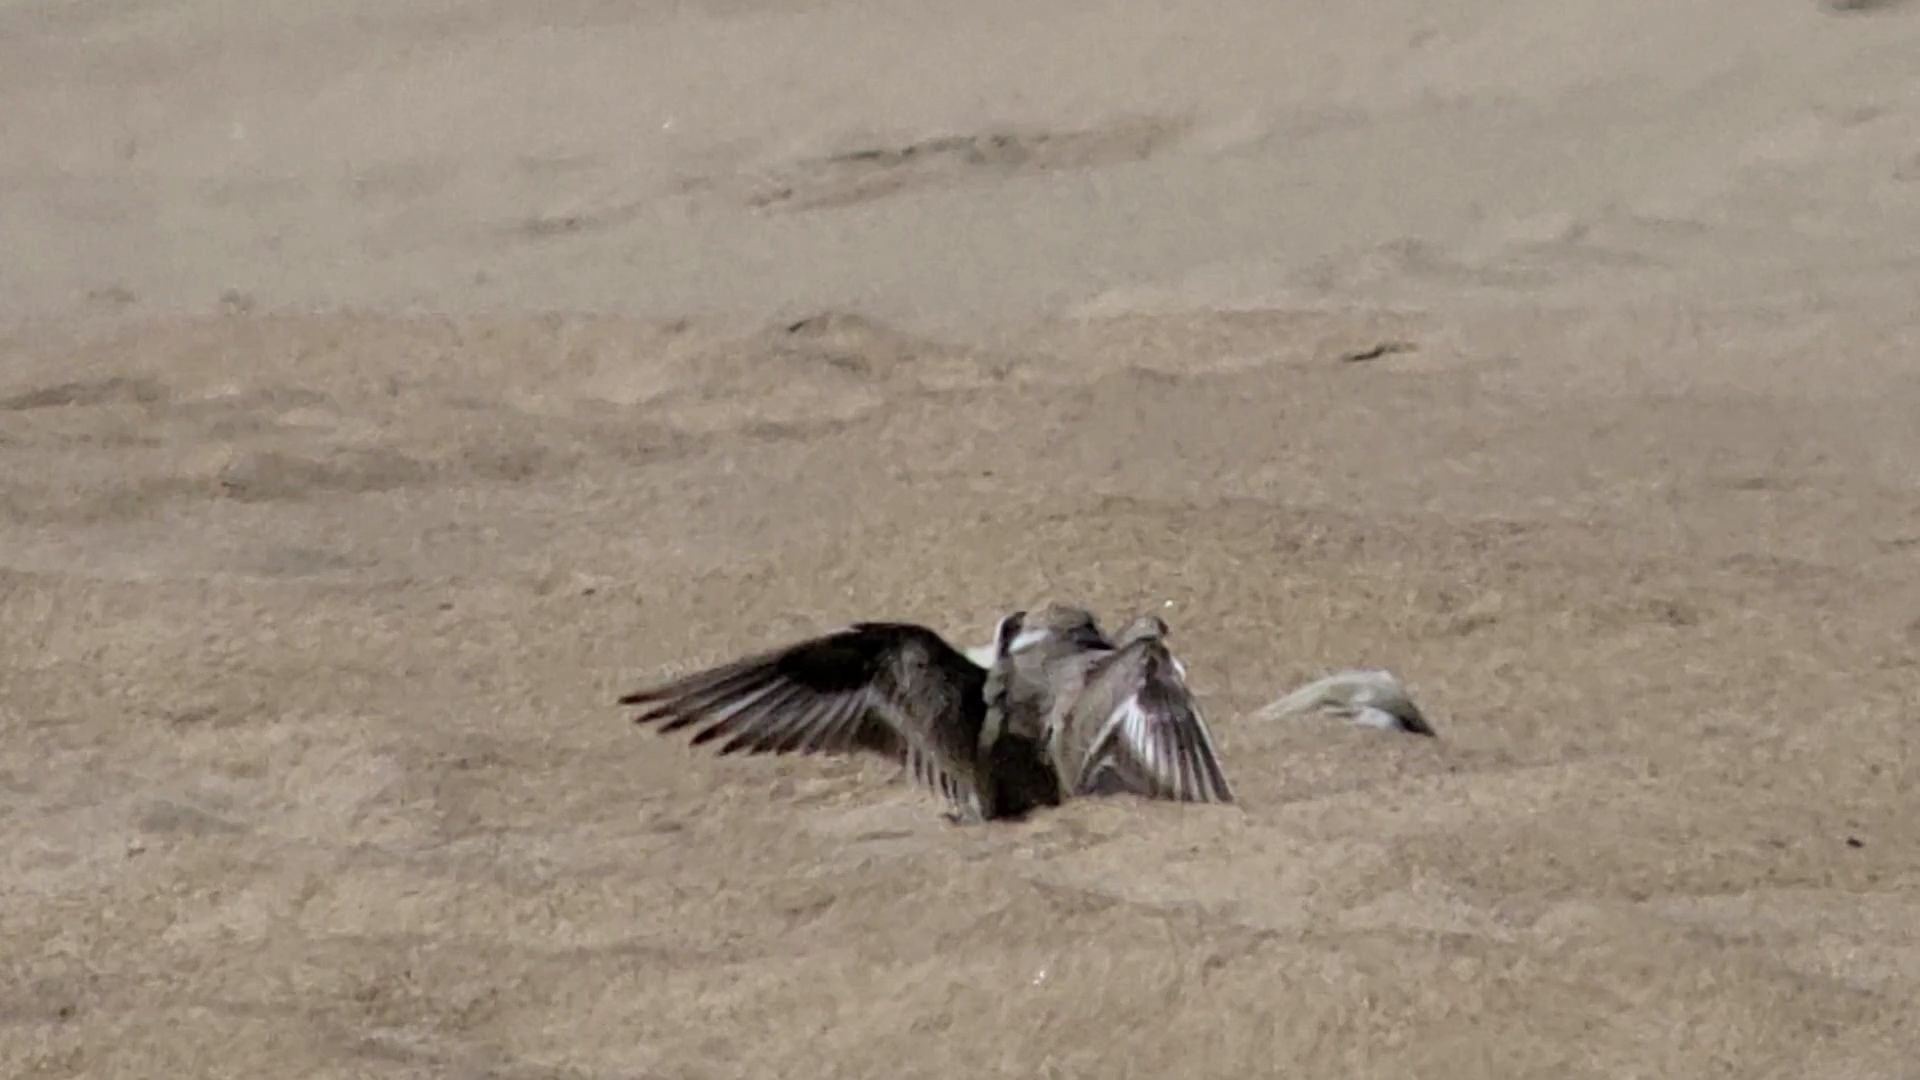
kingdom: Animalia
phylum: Chordata
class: Aves
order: Charadriiformes
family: Charadriidae
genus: Anarhynchus
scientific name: Anarhynchus
